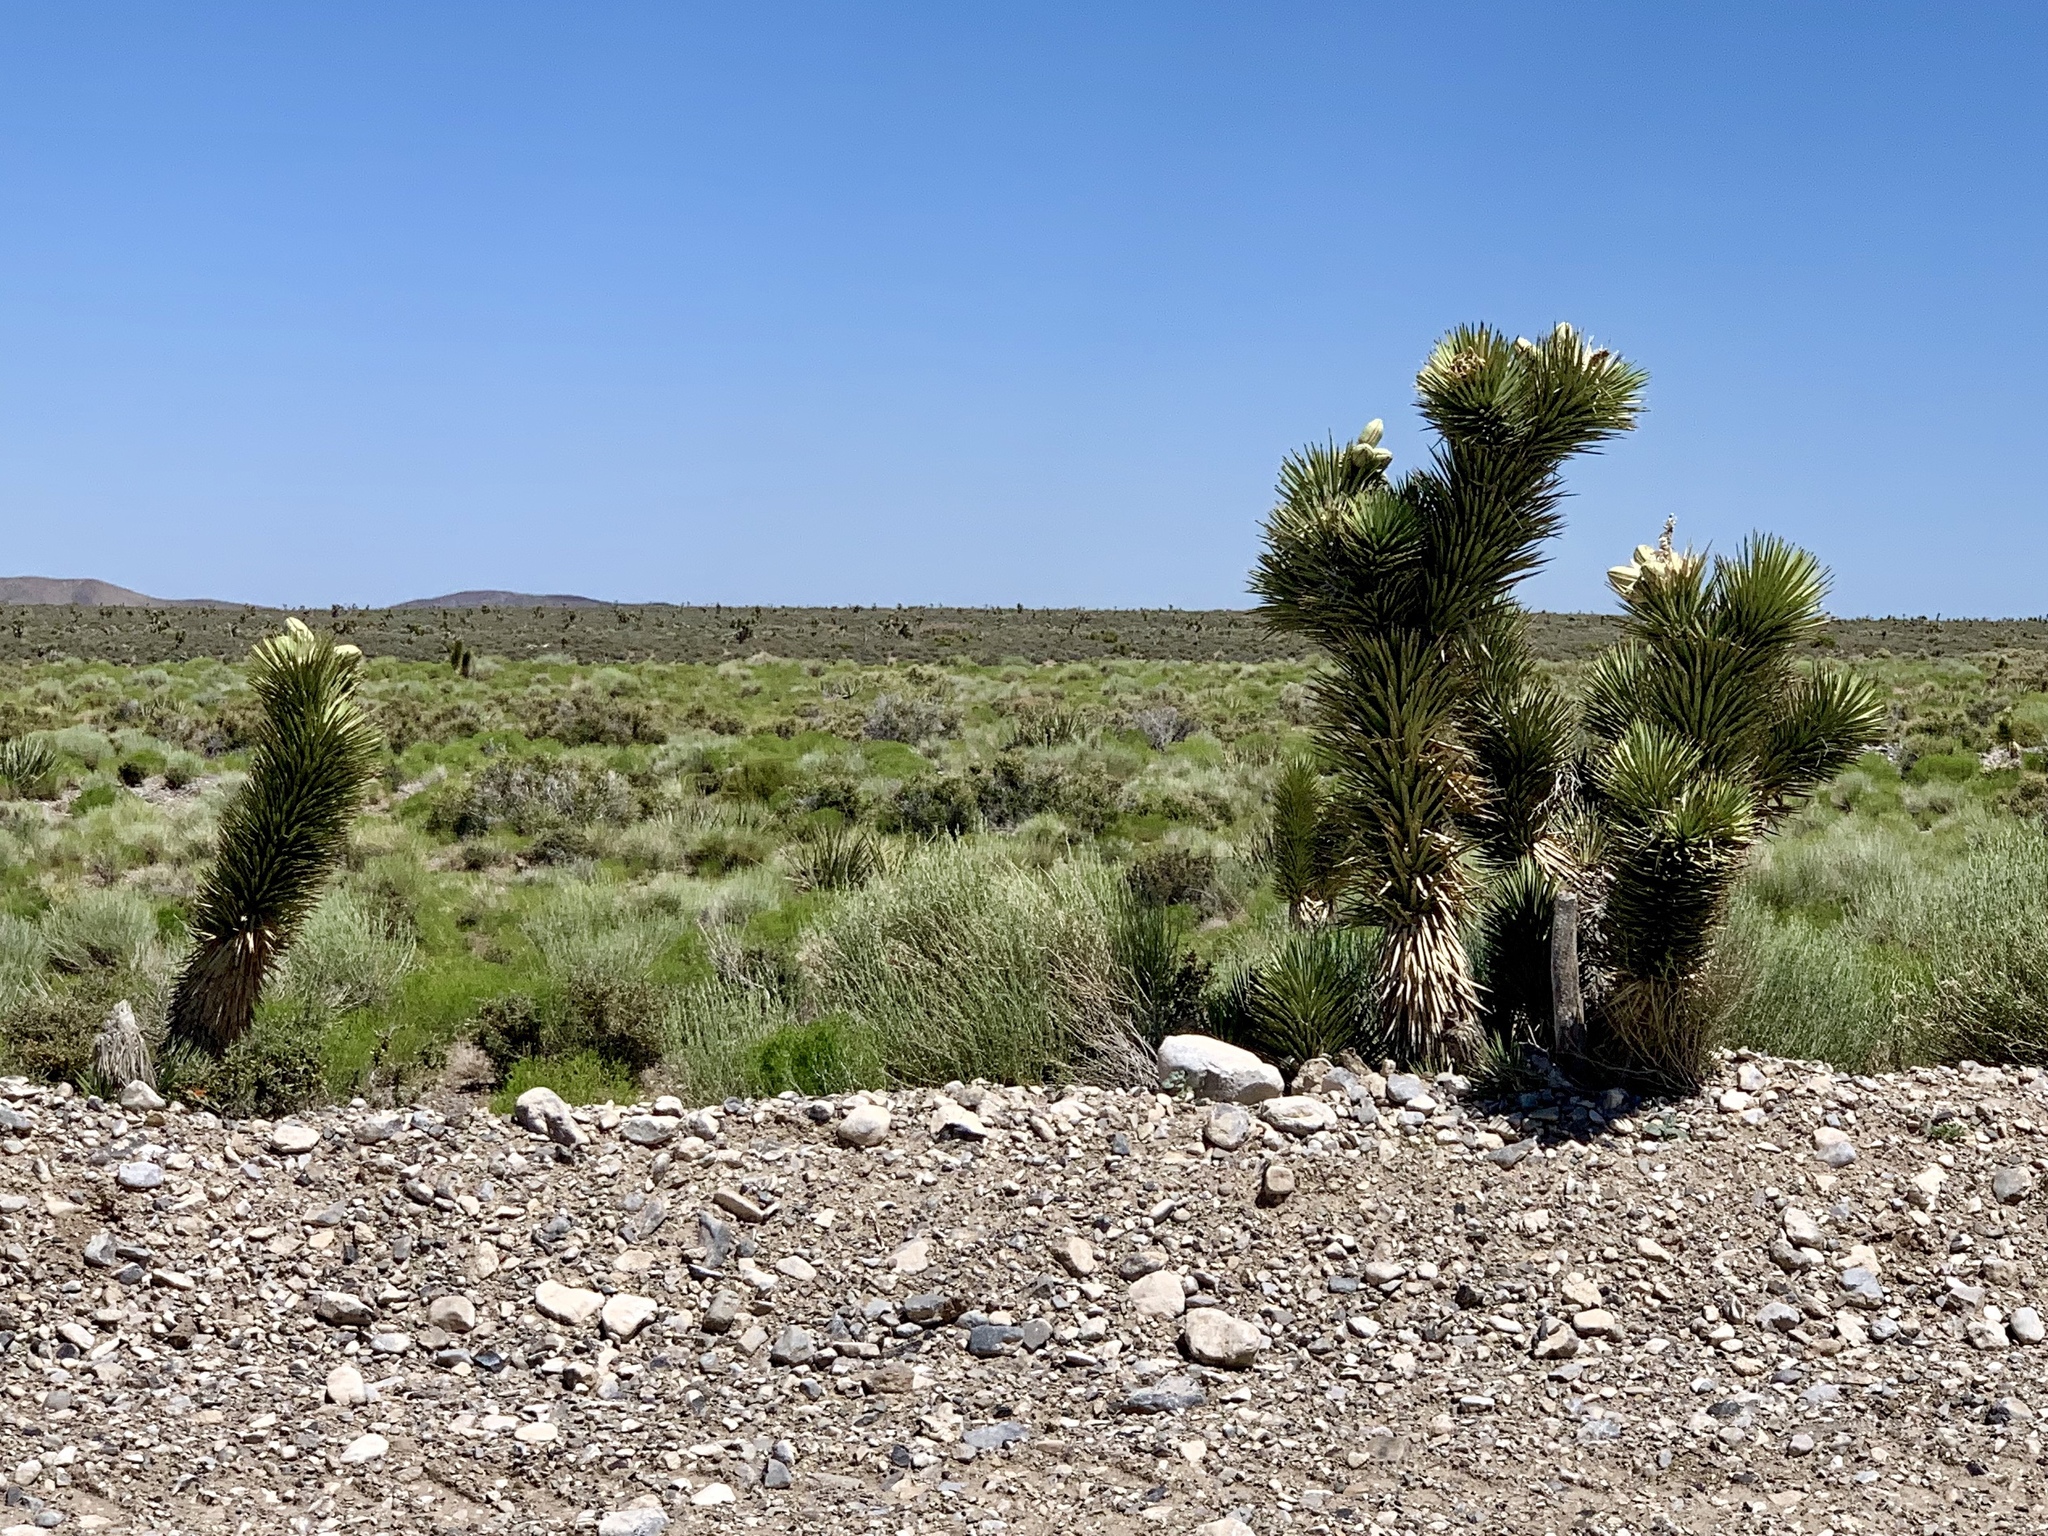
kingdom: Plantae
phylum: Tracheophyta
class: Liliopsida
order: Asparagales
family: Asparagaceae
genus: Yucca
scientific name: Yucca brevifolia
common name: Joshua tree
